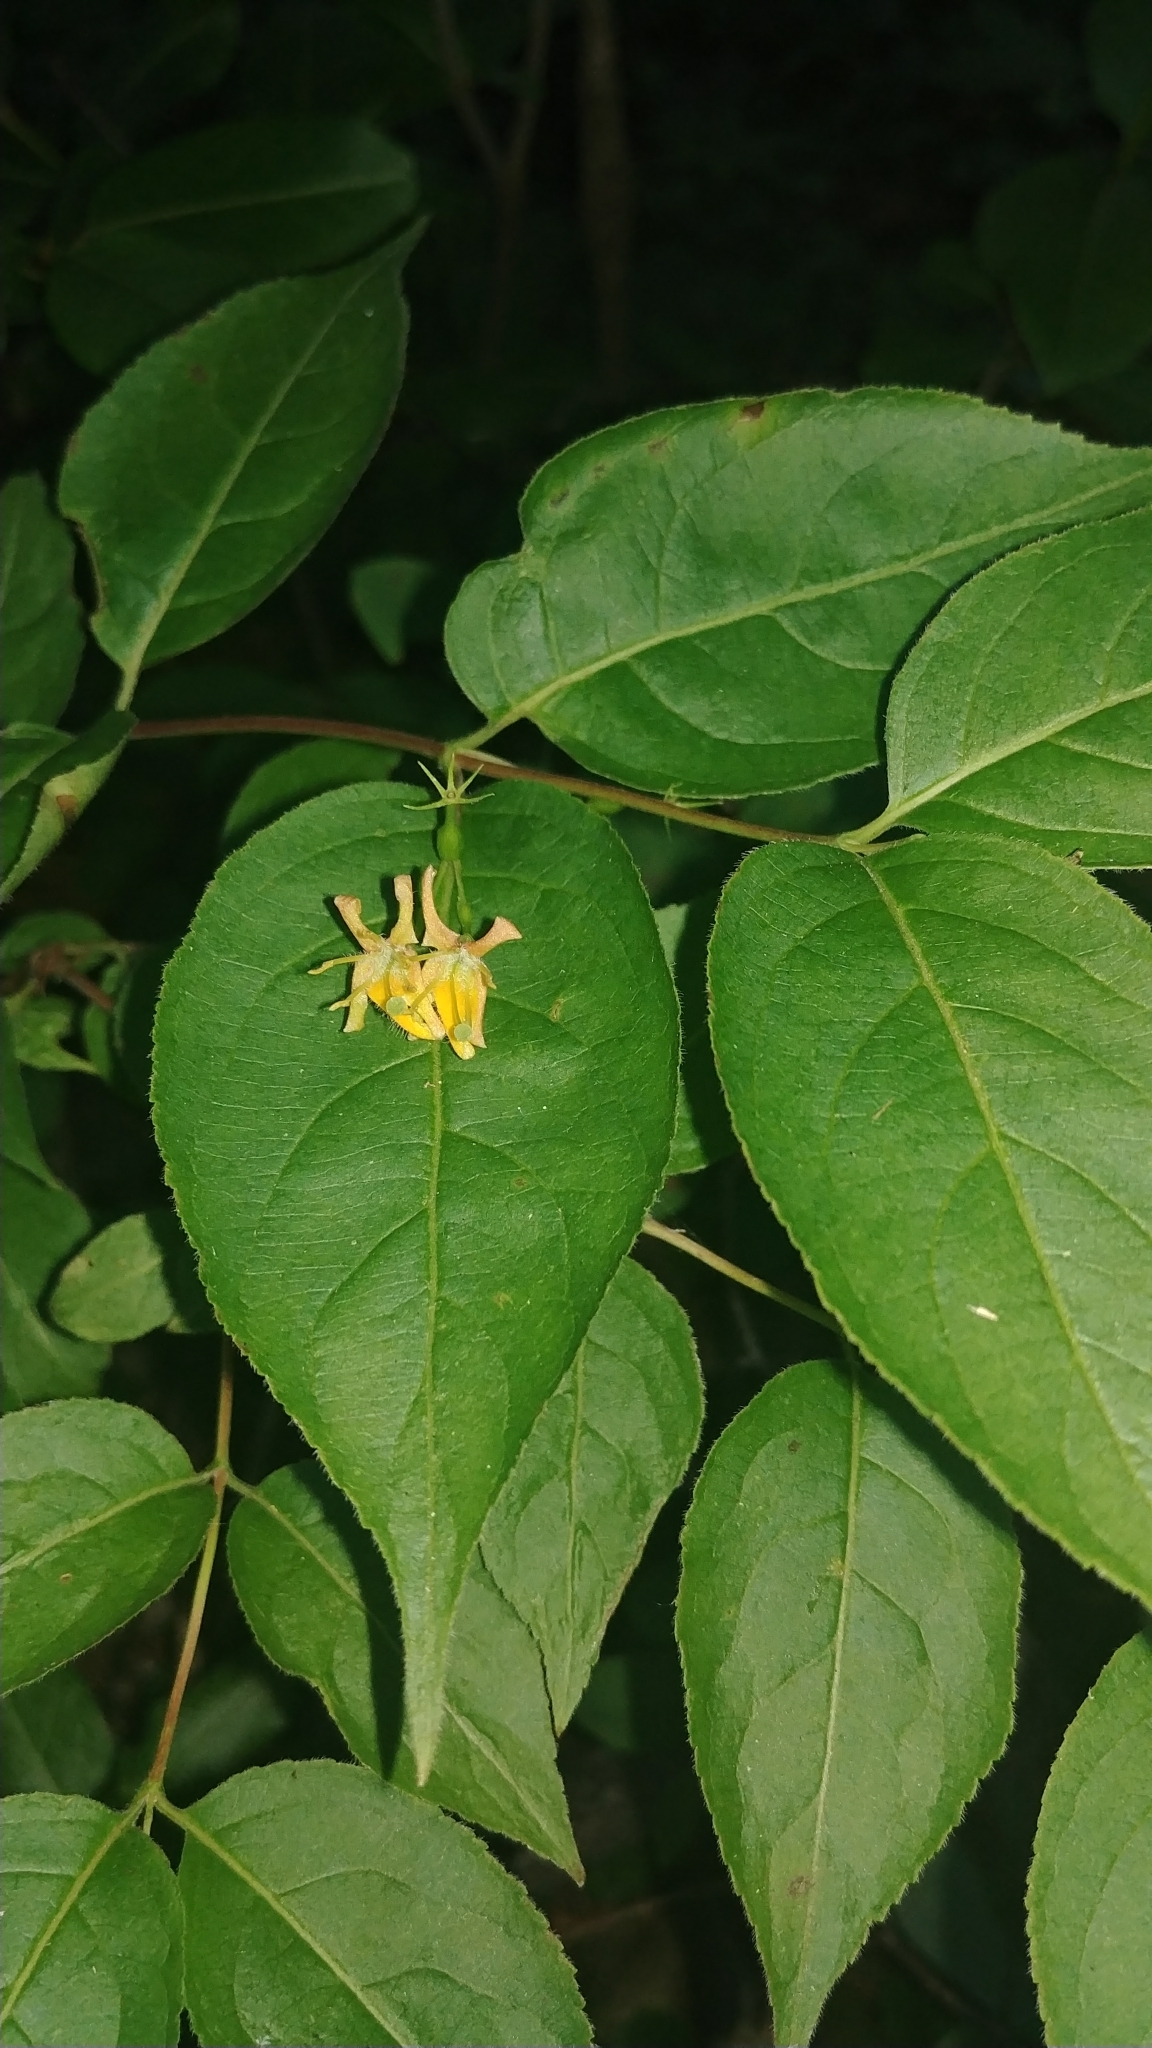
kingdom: Plantae
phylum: Tracheophyta
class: Magnoliopsida
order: Dipsacales
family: Caprifoliaceae
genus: Diervilla
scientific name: Diervilla lonicera
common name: Bush-honeysuckle
